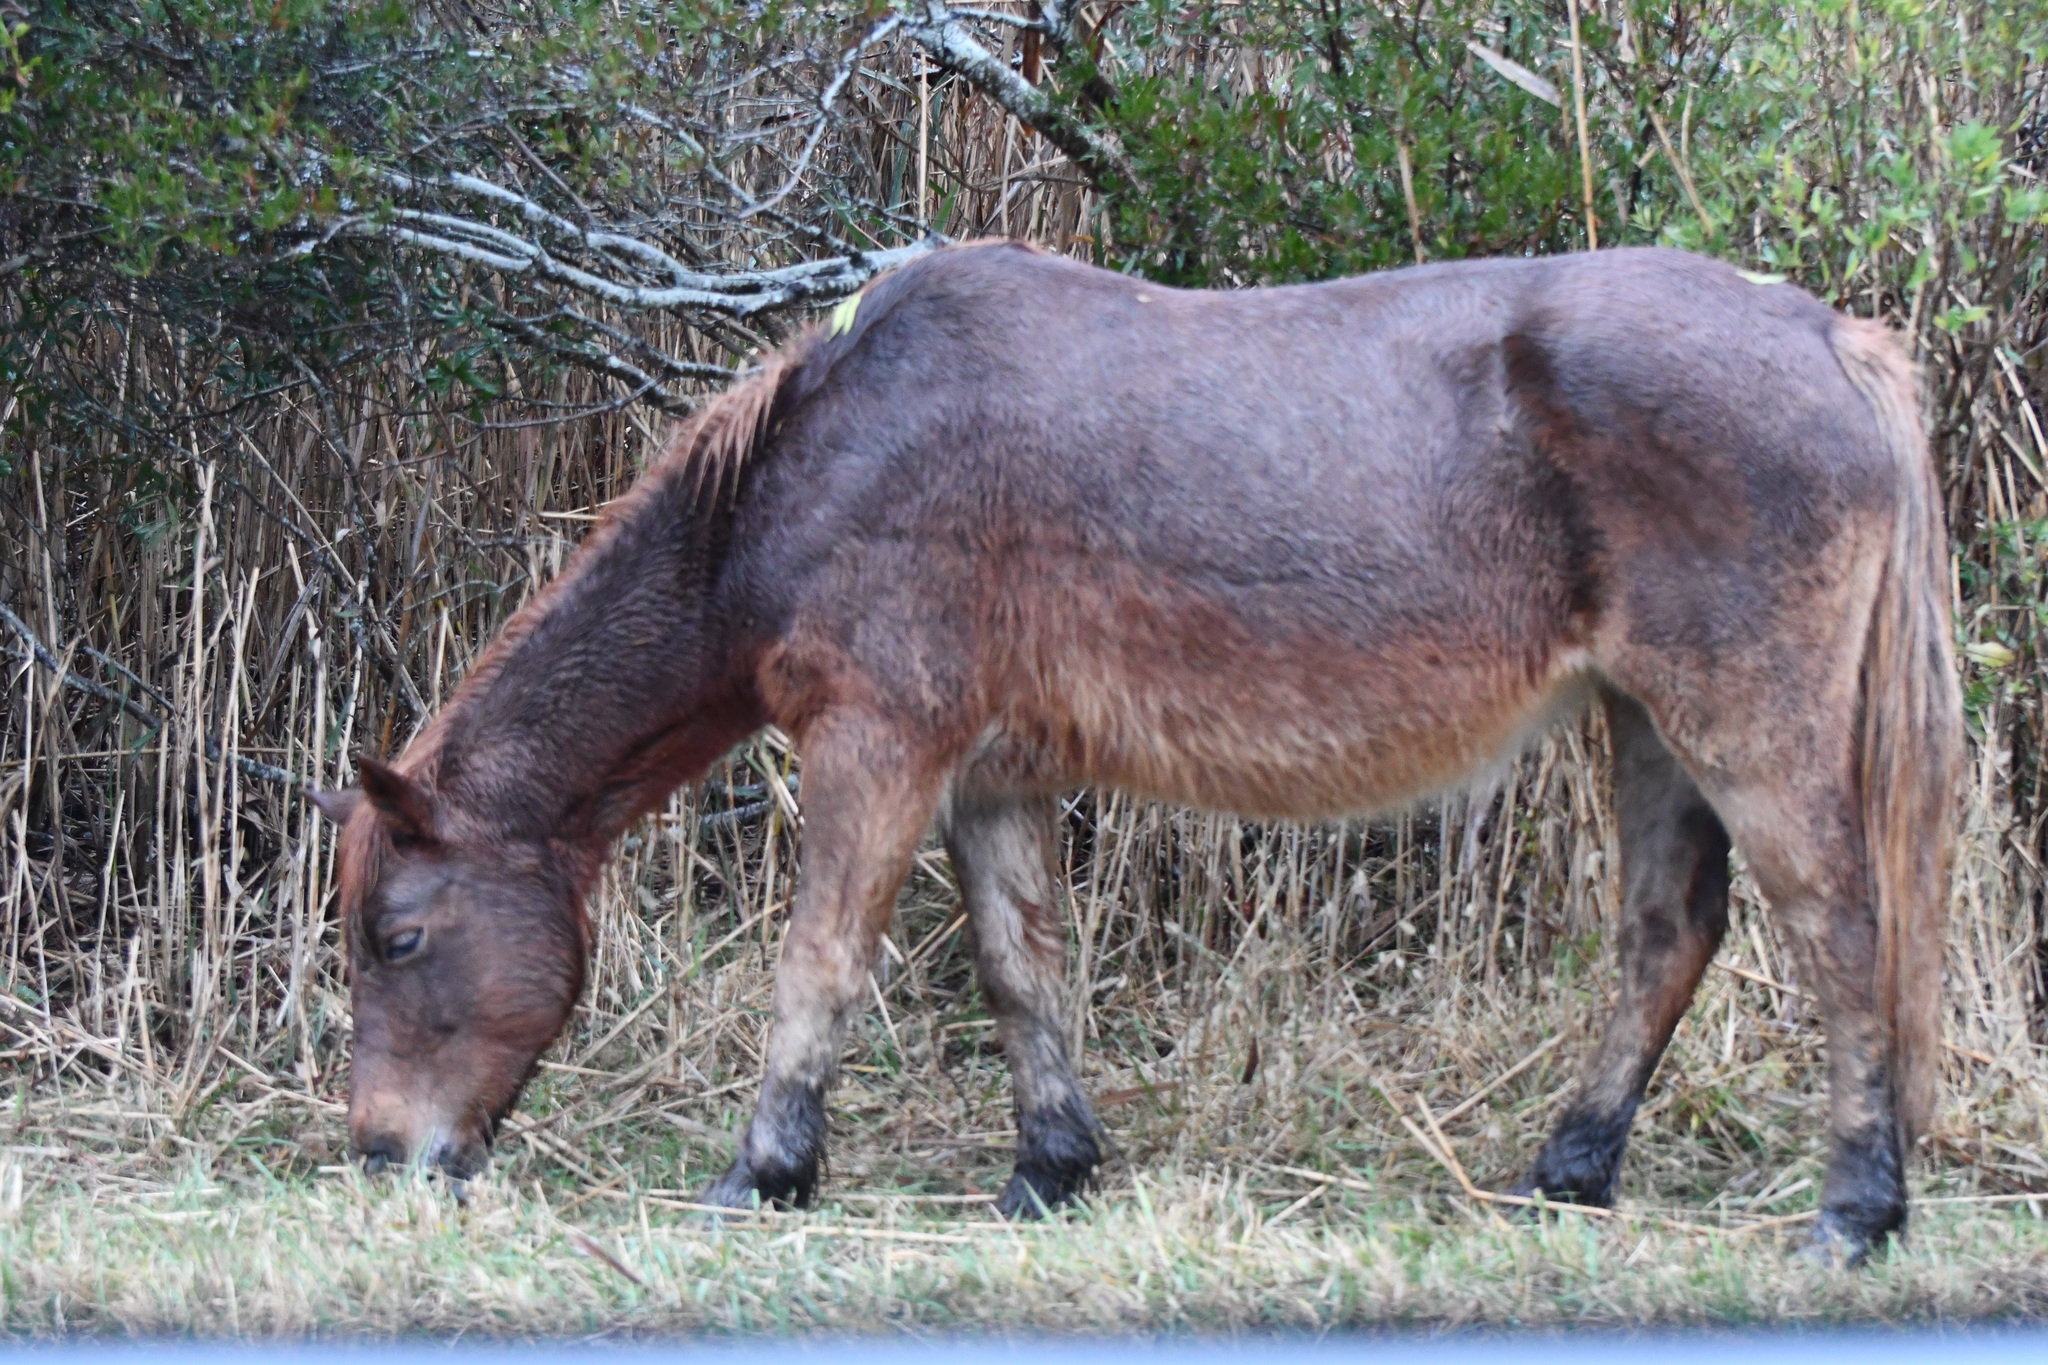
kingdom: Animalia
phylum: Chordata
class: Mammalia
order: Perissodactyla
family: Equidae
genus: Equus
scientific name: Equus caballus
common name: Horse
